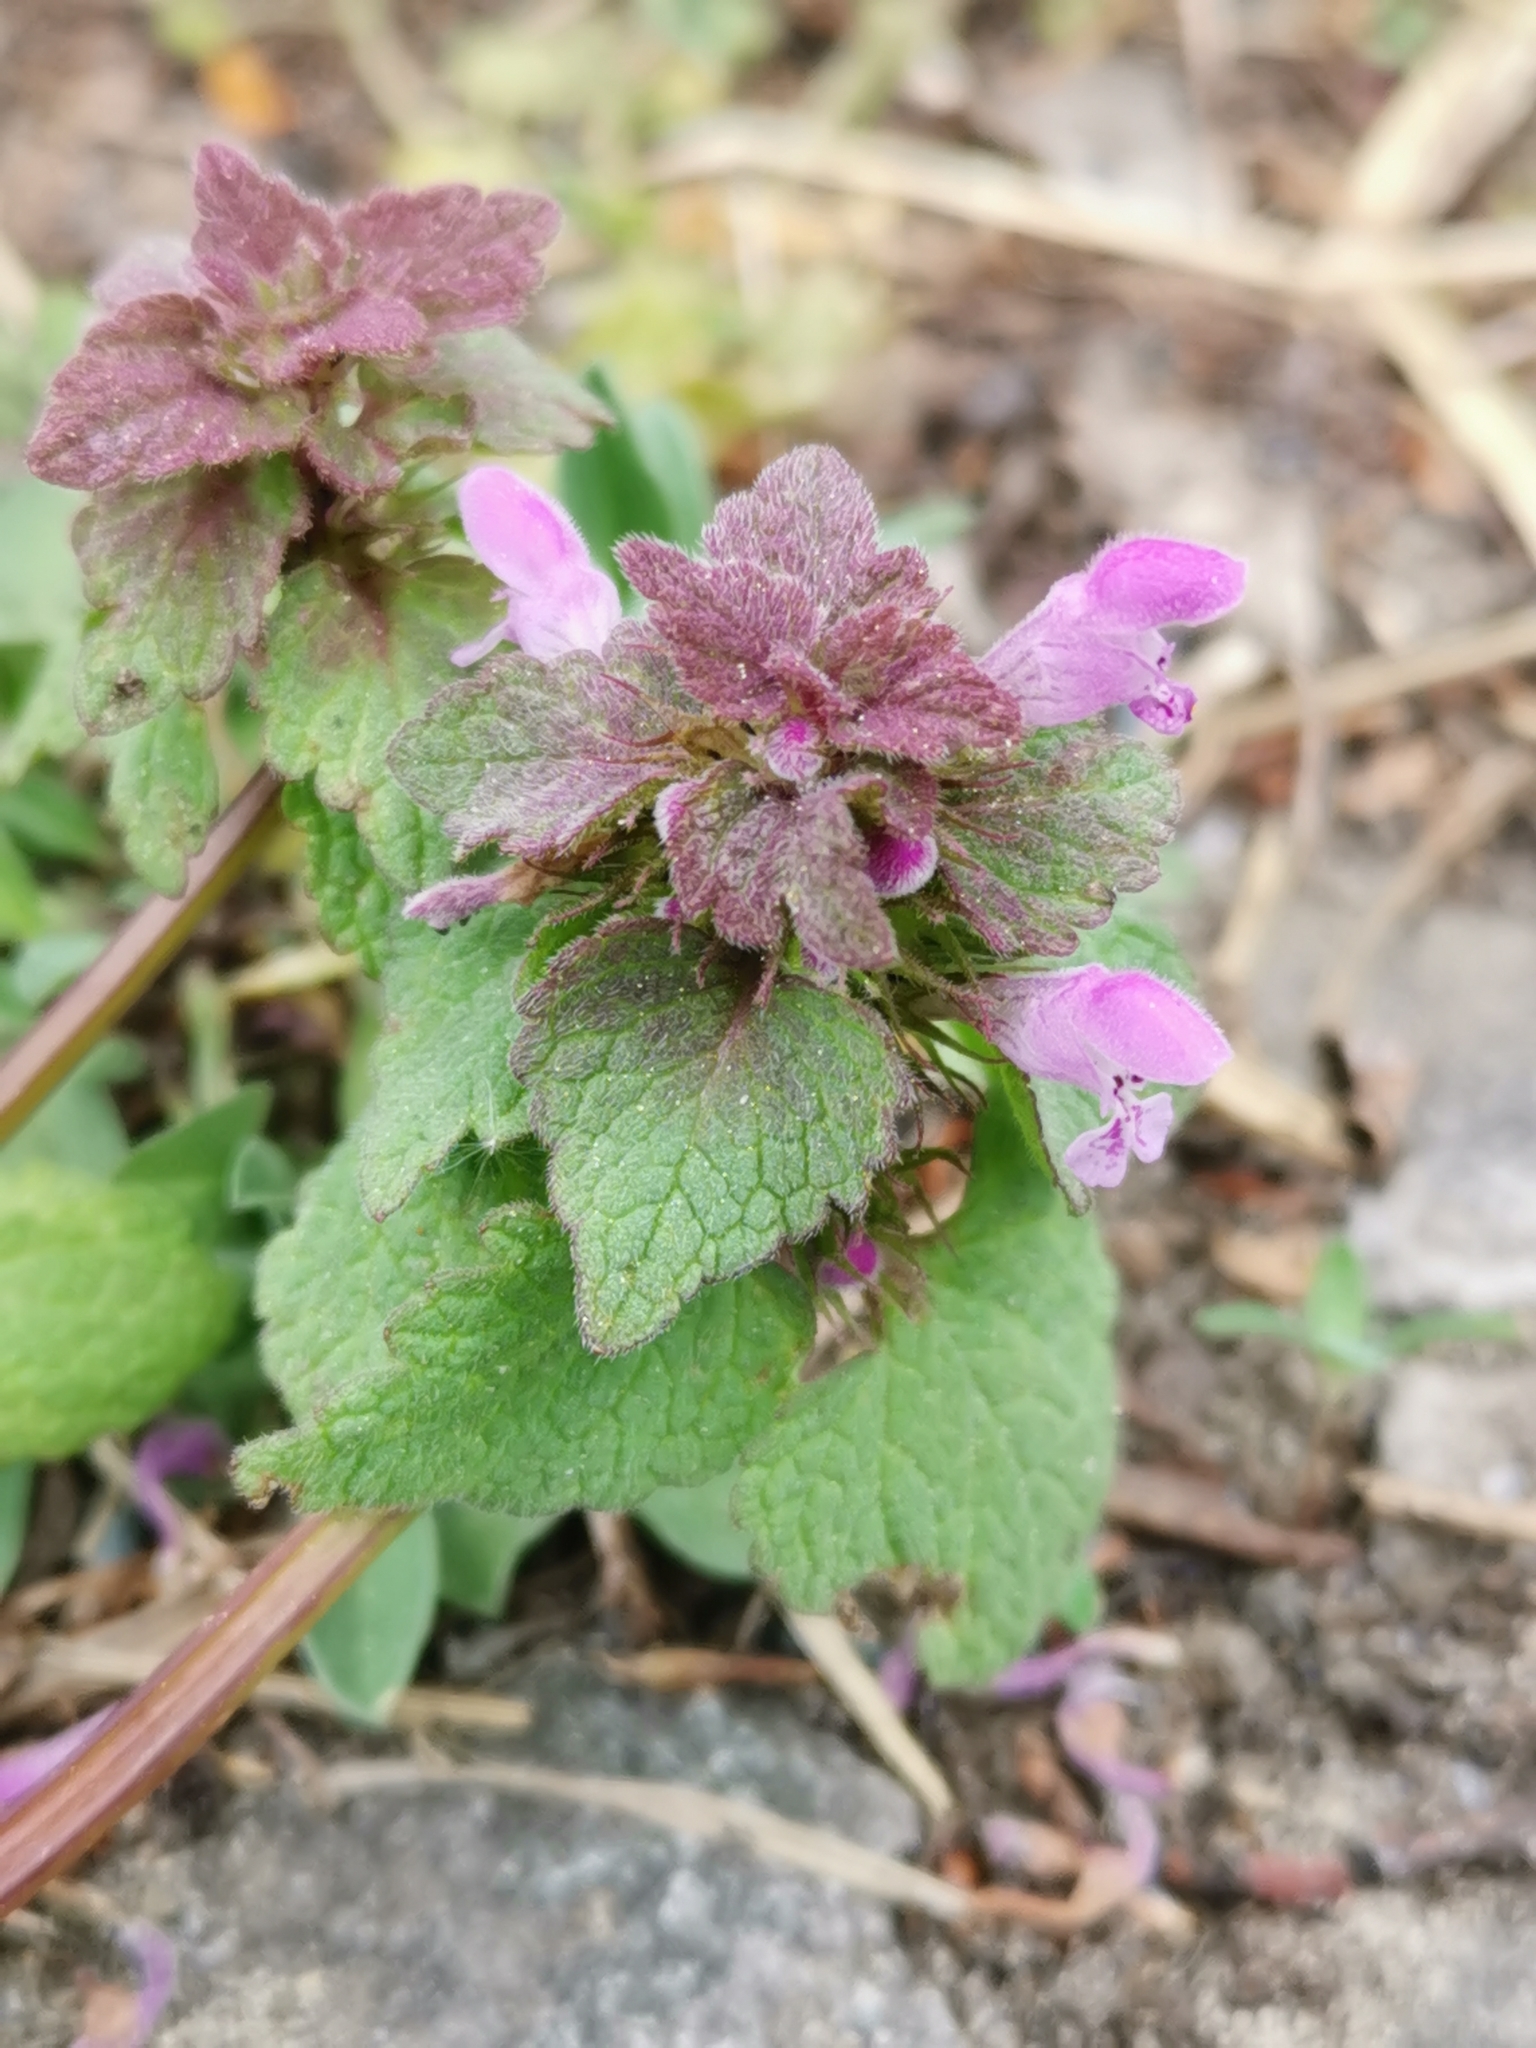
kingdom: Plantae
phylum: Tracheophyta
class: Magnoliopsida
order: Lamiales
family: Lamiaceae
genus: Lamium
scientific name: Lamium purpureum
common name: Red dead-nettle
